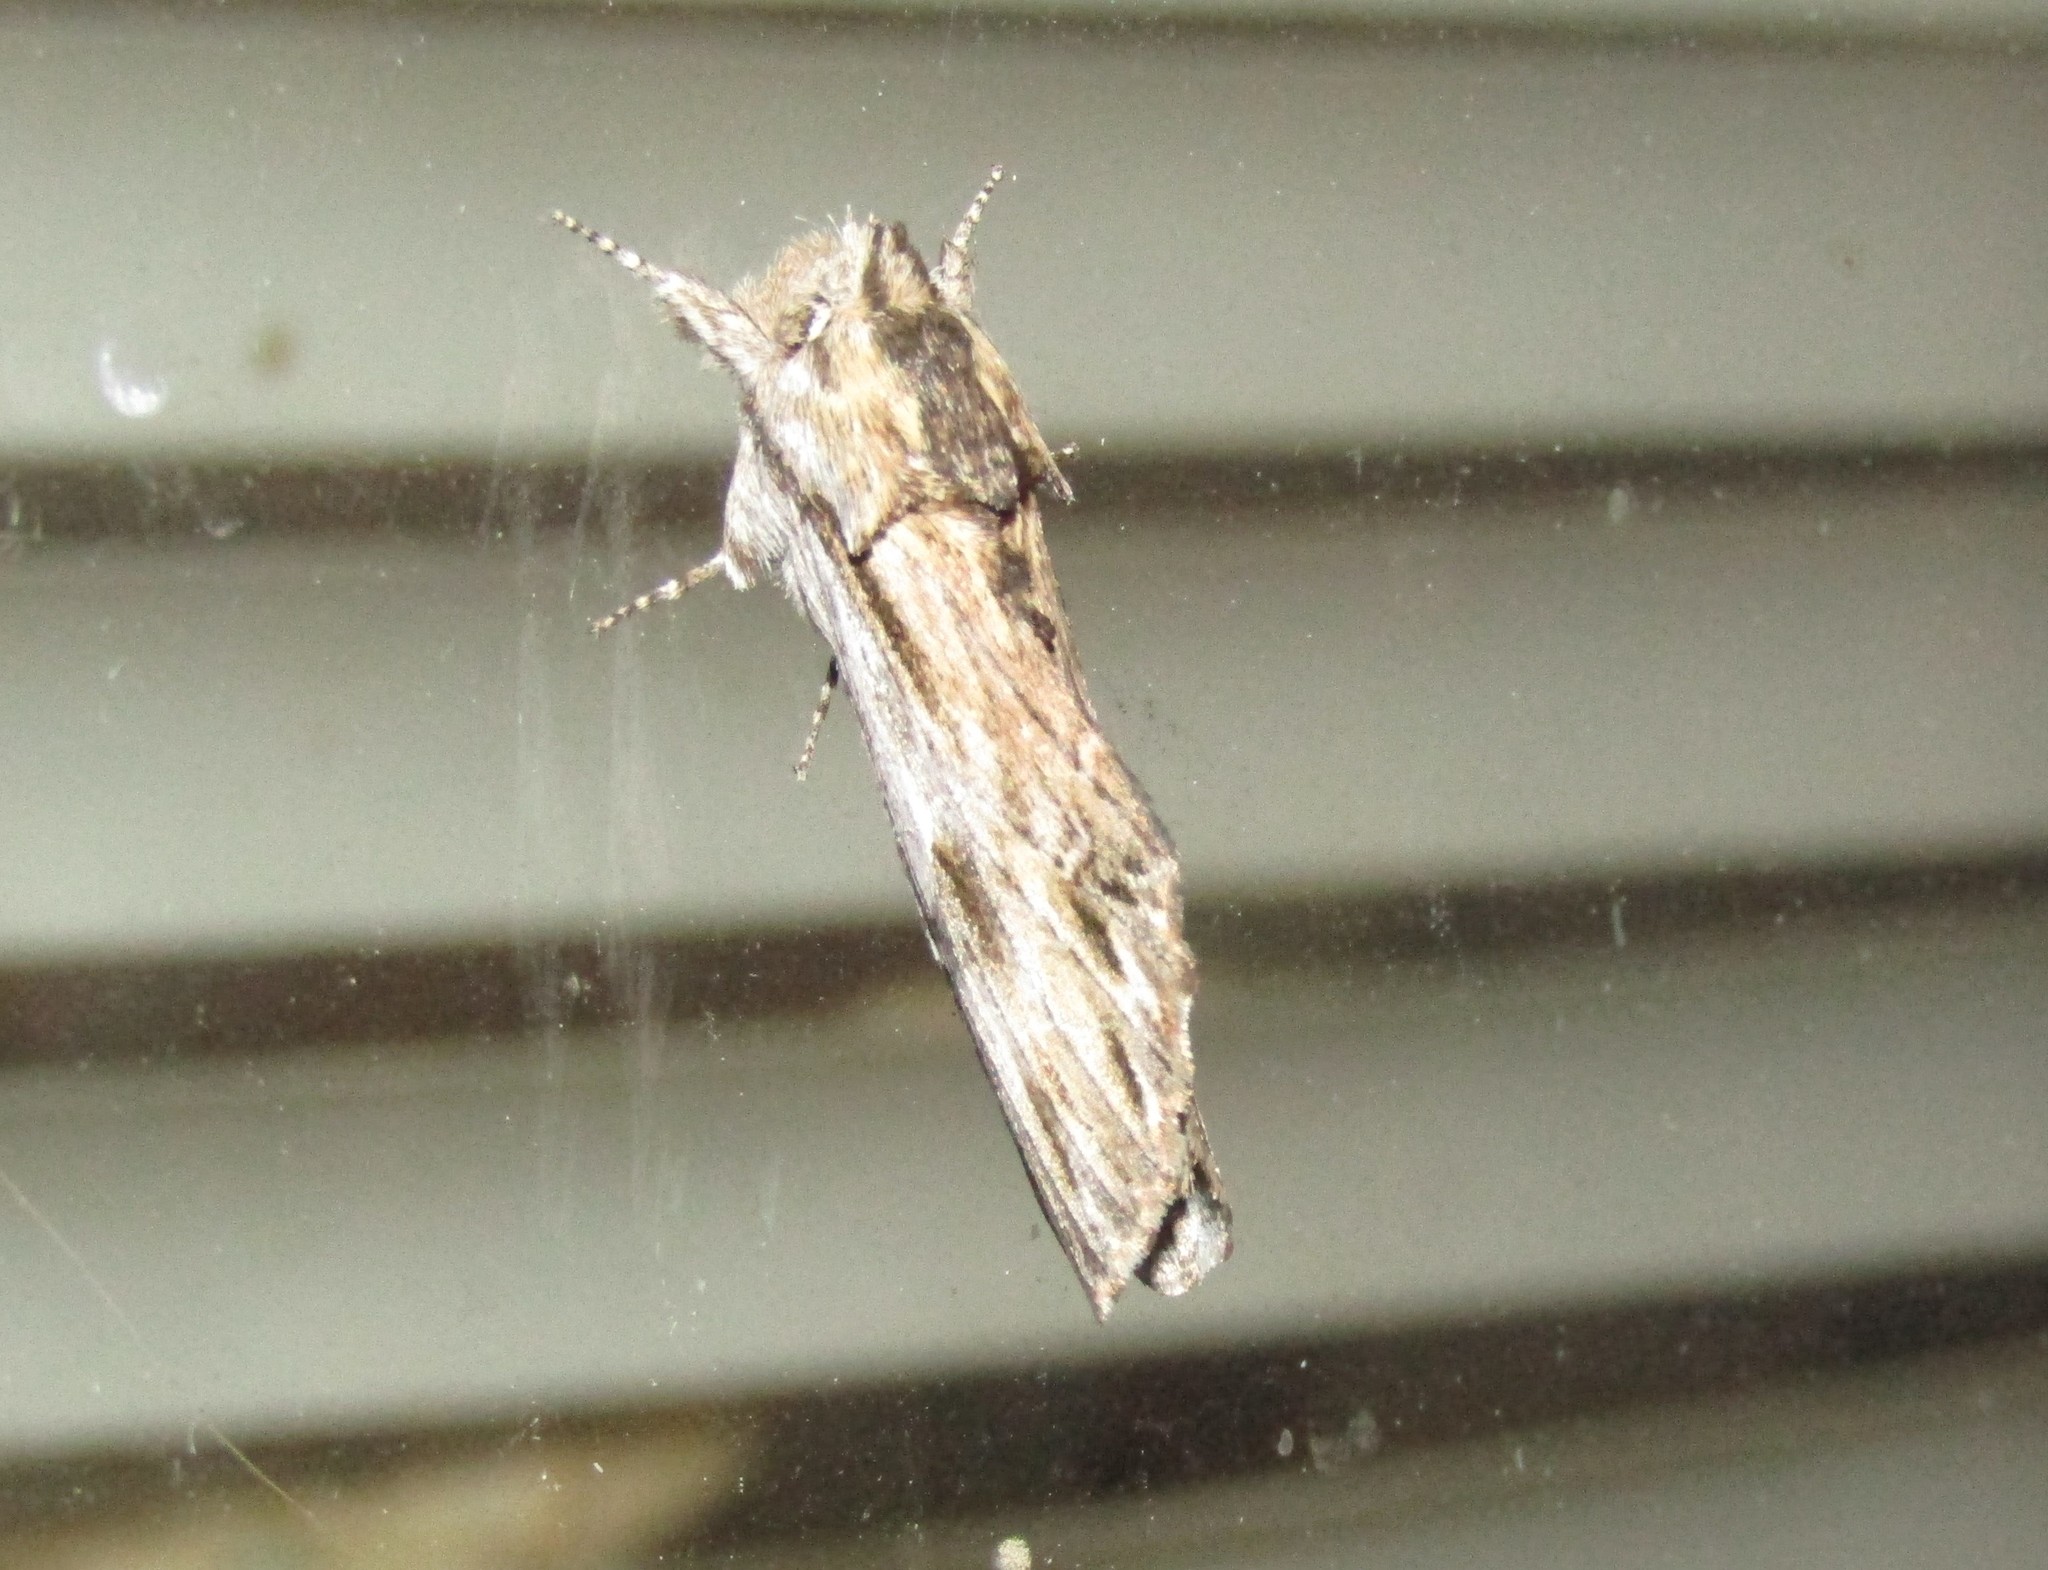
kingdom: Animalia
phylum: Arthropoda
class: Insecta
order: Lepidoptera
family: Notodontidae
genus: Oligocentria
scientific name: Oligocentria Ianassa lignicolor
